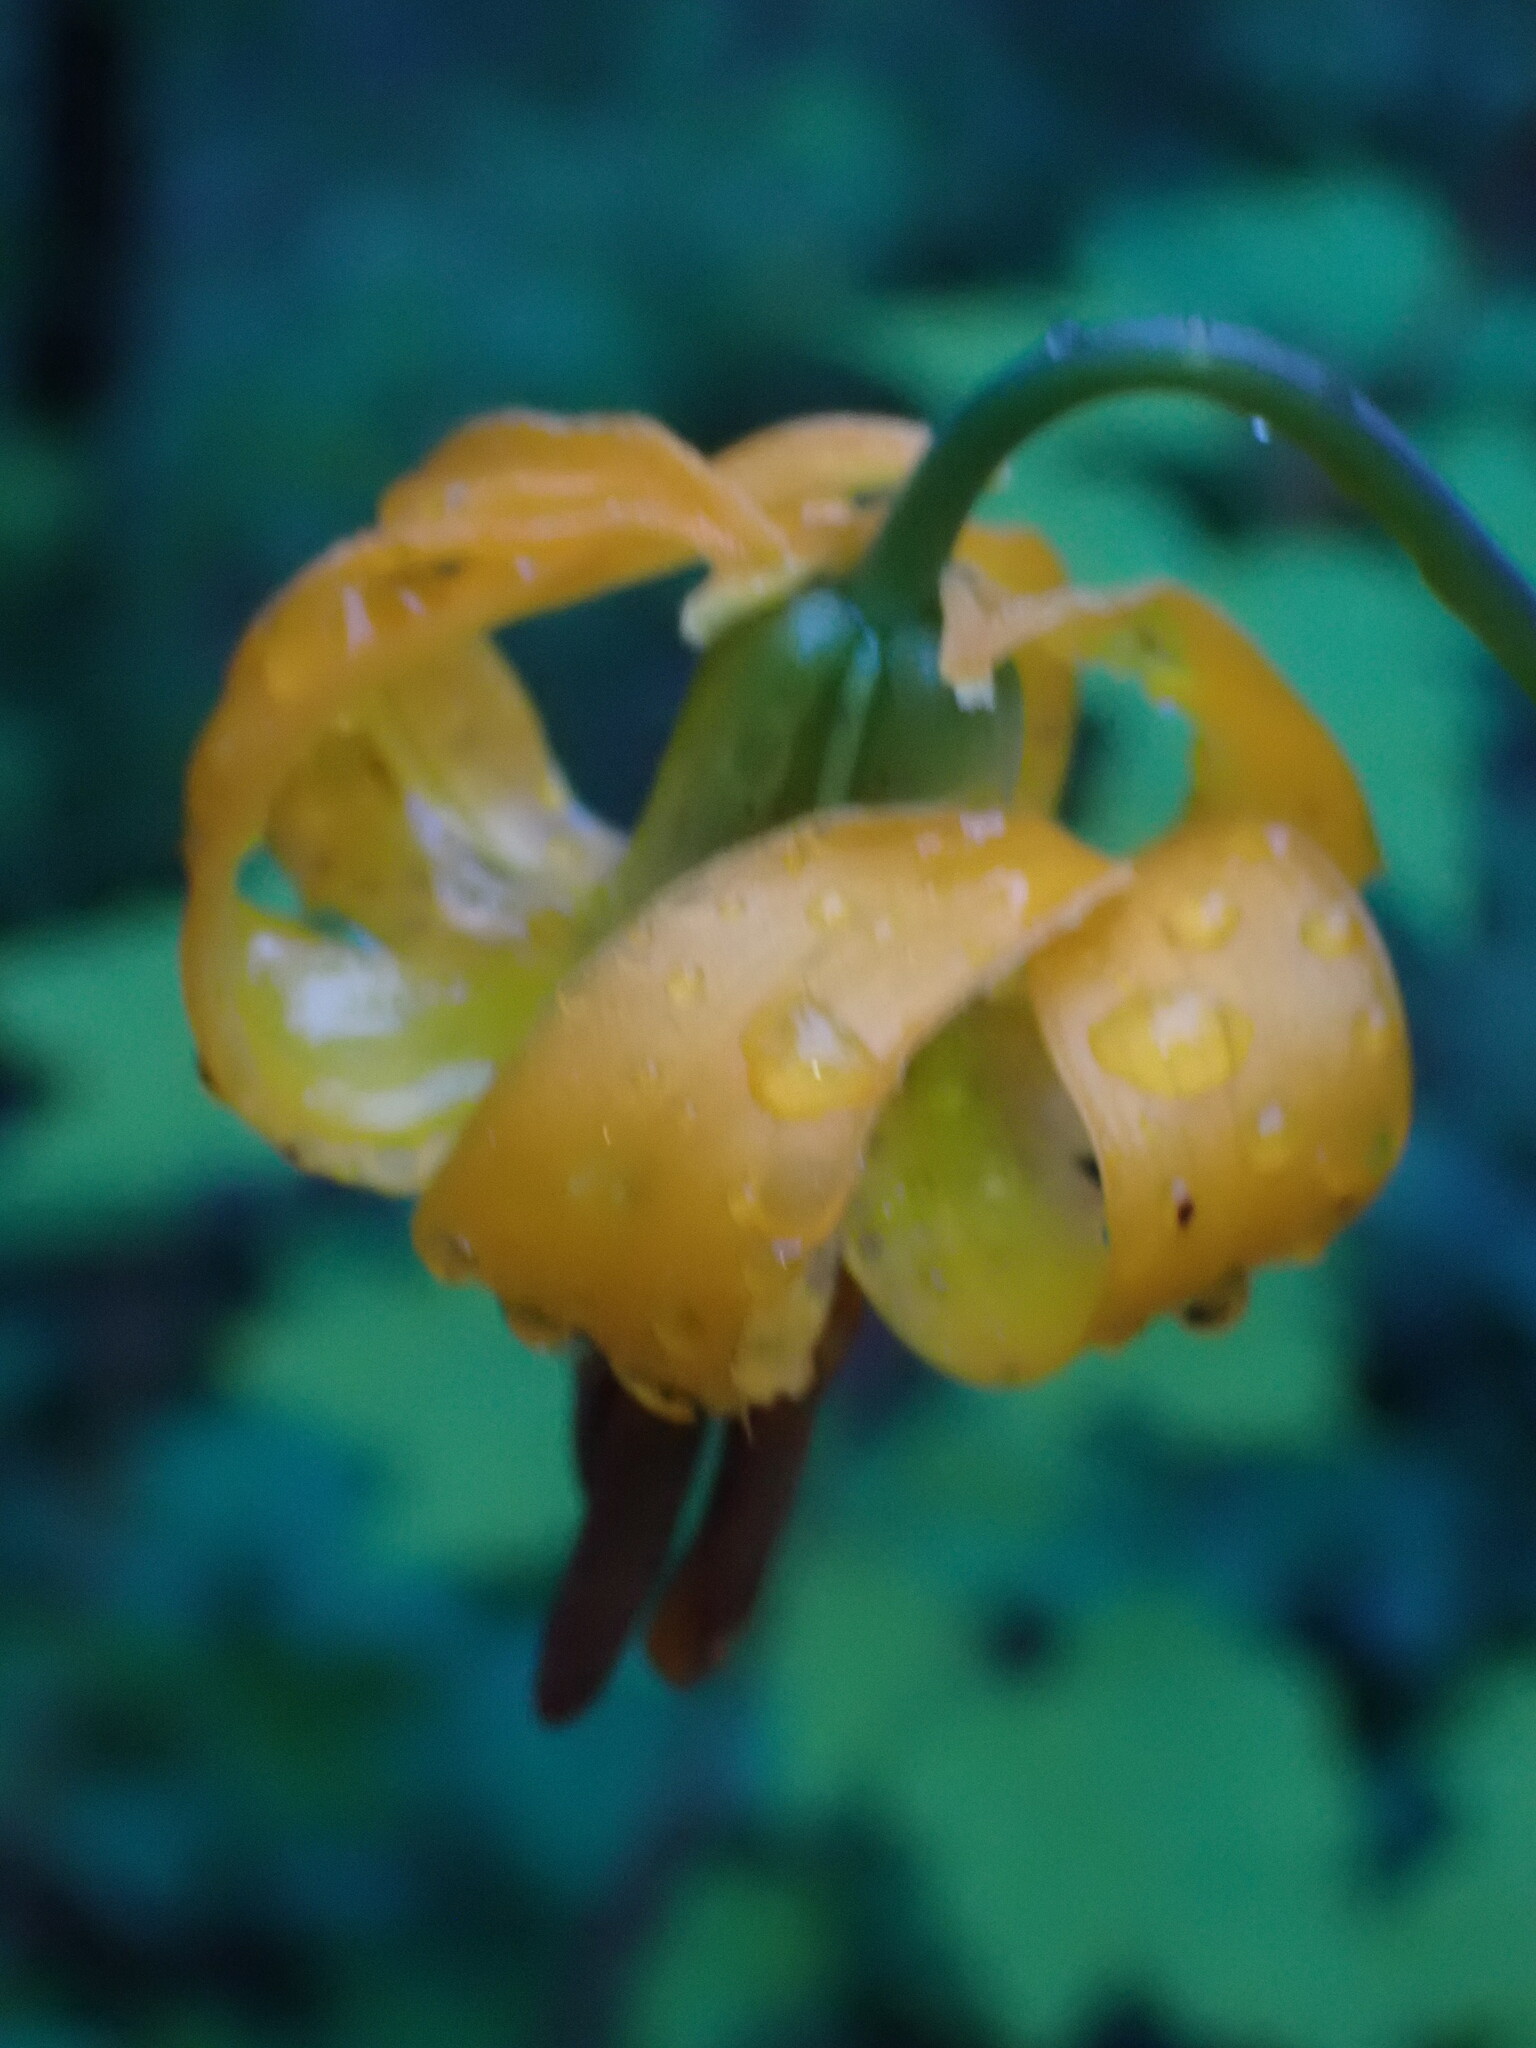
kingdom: Plantae
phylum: Tracheophyta
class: Liliopsida
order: Liliales
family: Liliaceae
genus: Lilium
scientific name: Lilium columbianum
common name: Columbia lily
